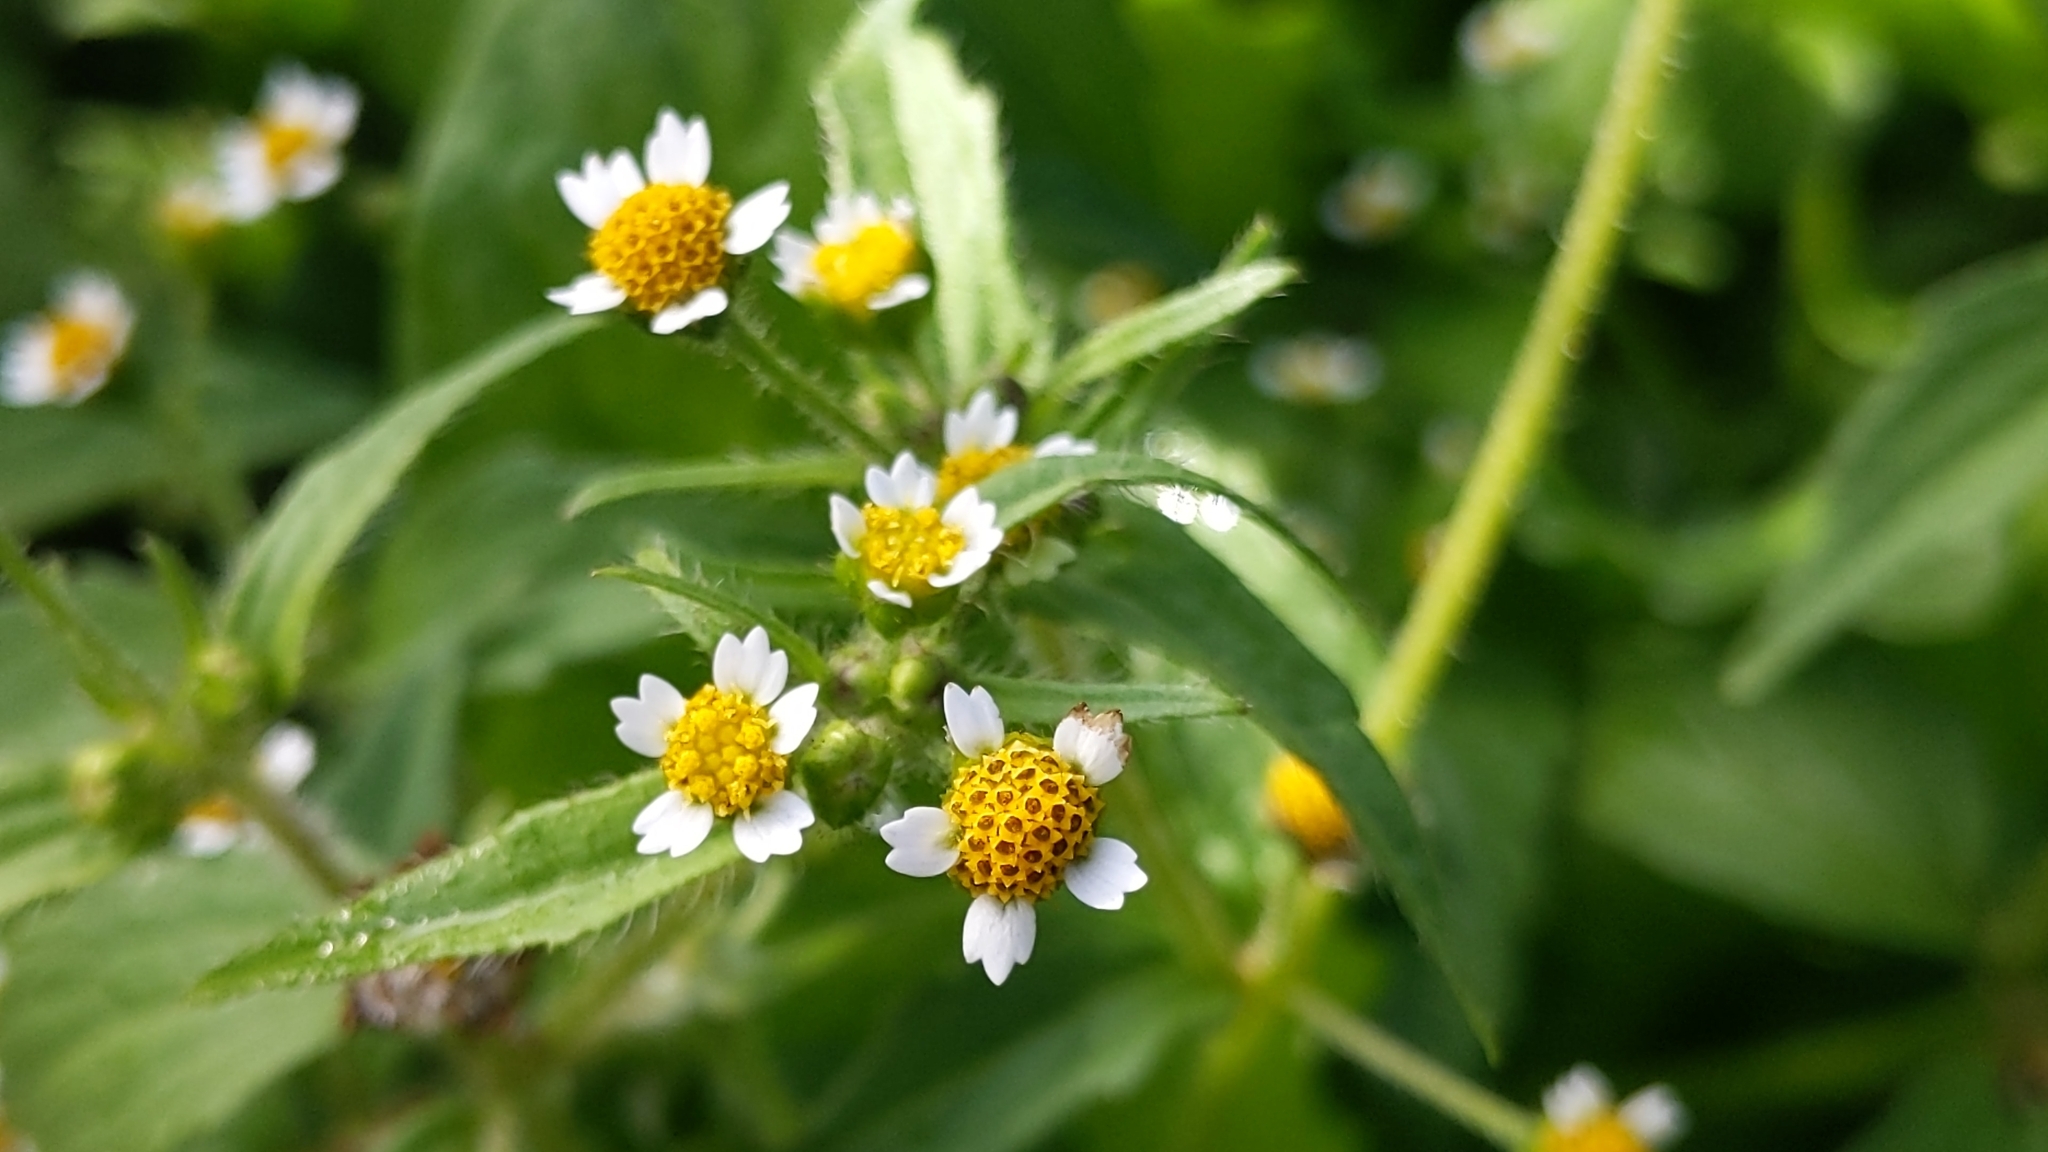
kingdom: Plantae
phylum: Tracheophyta
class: Magnoliopsida
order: Asterales
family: Asteraceae
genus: Galinsoga
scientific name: Galinsoga quadriradiata
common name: Shaggy soldier
